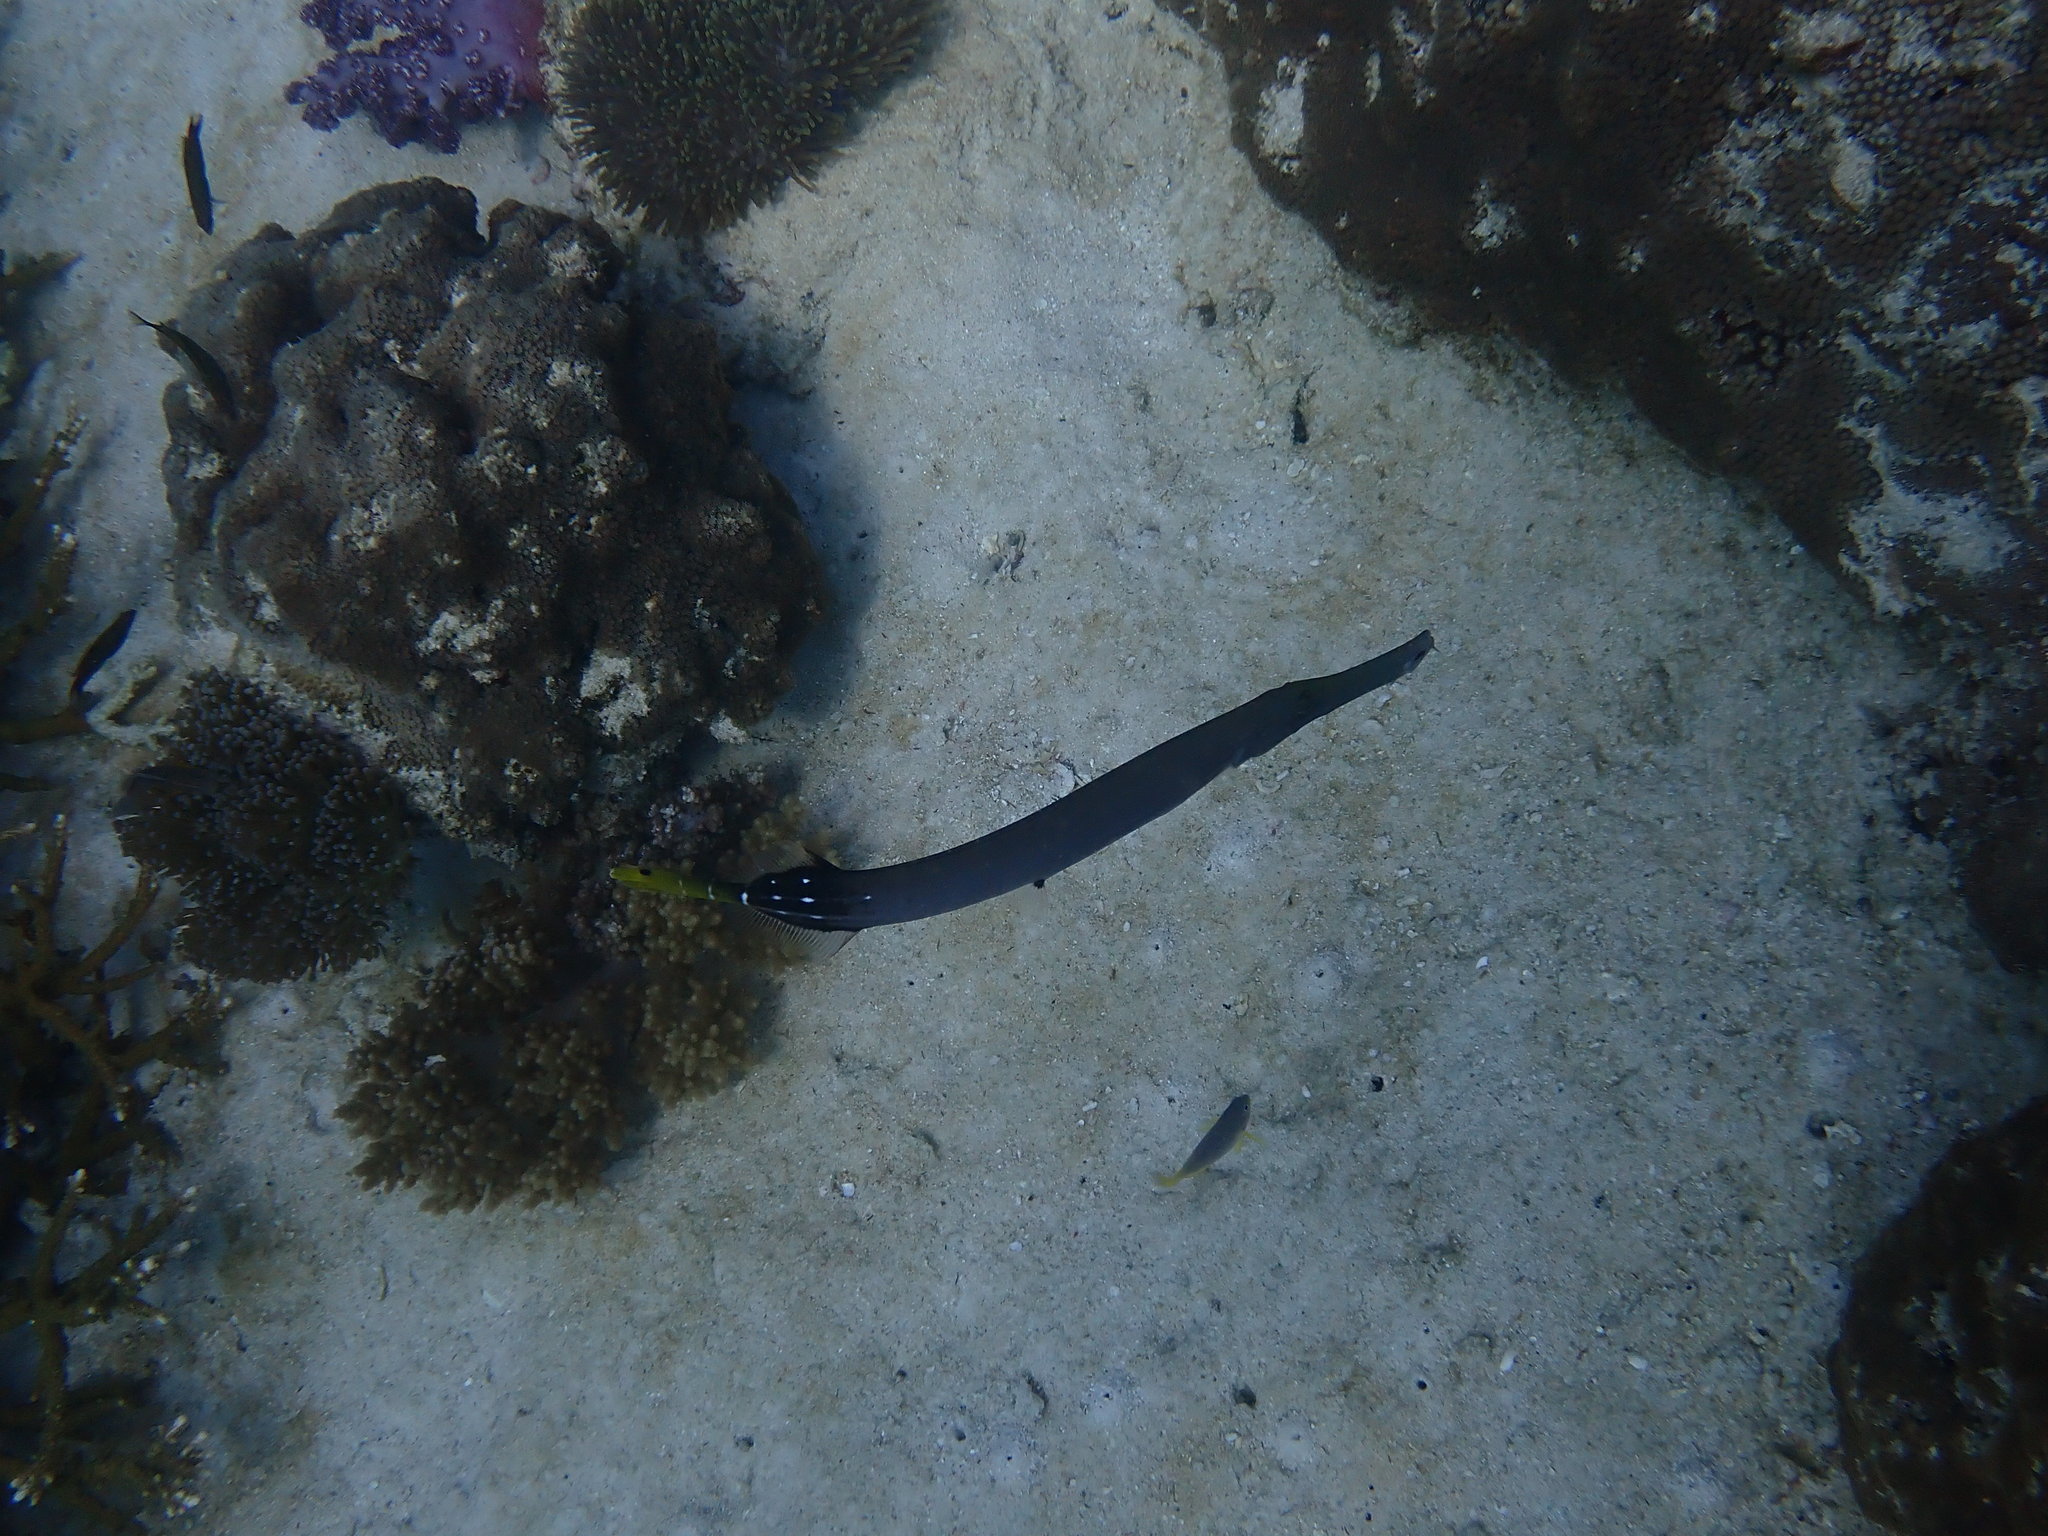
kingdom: Animalia
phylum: Chordata
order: Syngnathiformes
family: Aulostomidae
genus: Aulostomus
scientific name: Aulostomus chinensis
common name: Chinese trumpetfish
